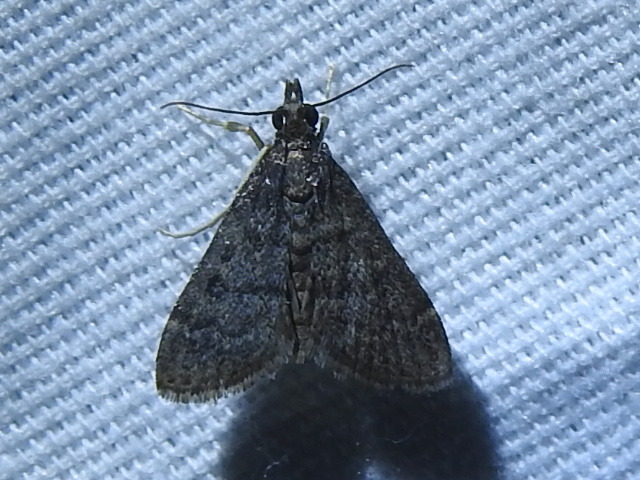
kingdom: Animalia
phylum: Arthropoda
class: Insecta
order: Lepidoptera
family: Crambidae
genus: Steniodes
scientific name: Steniodes declivalis
